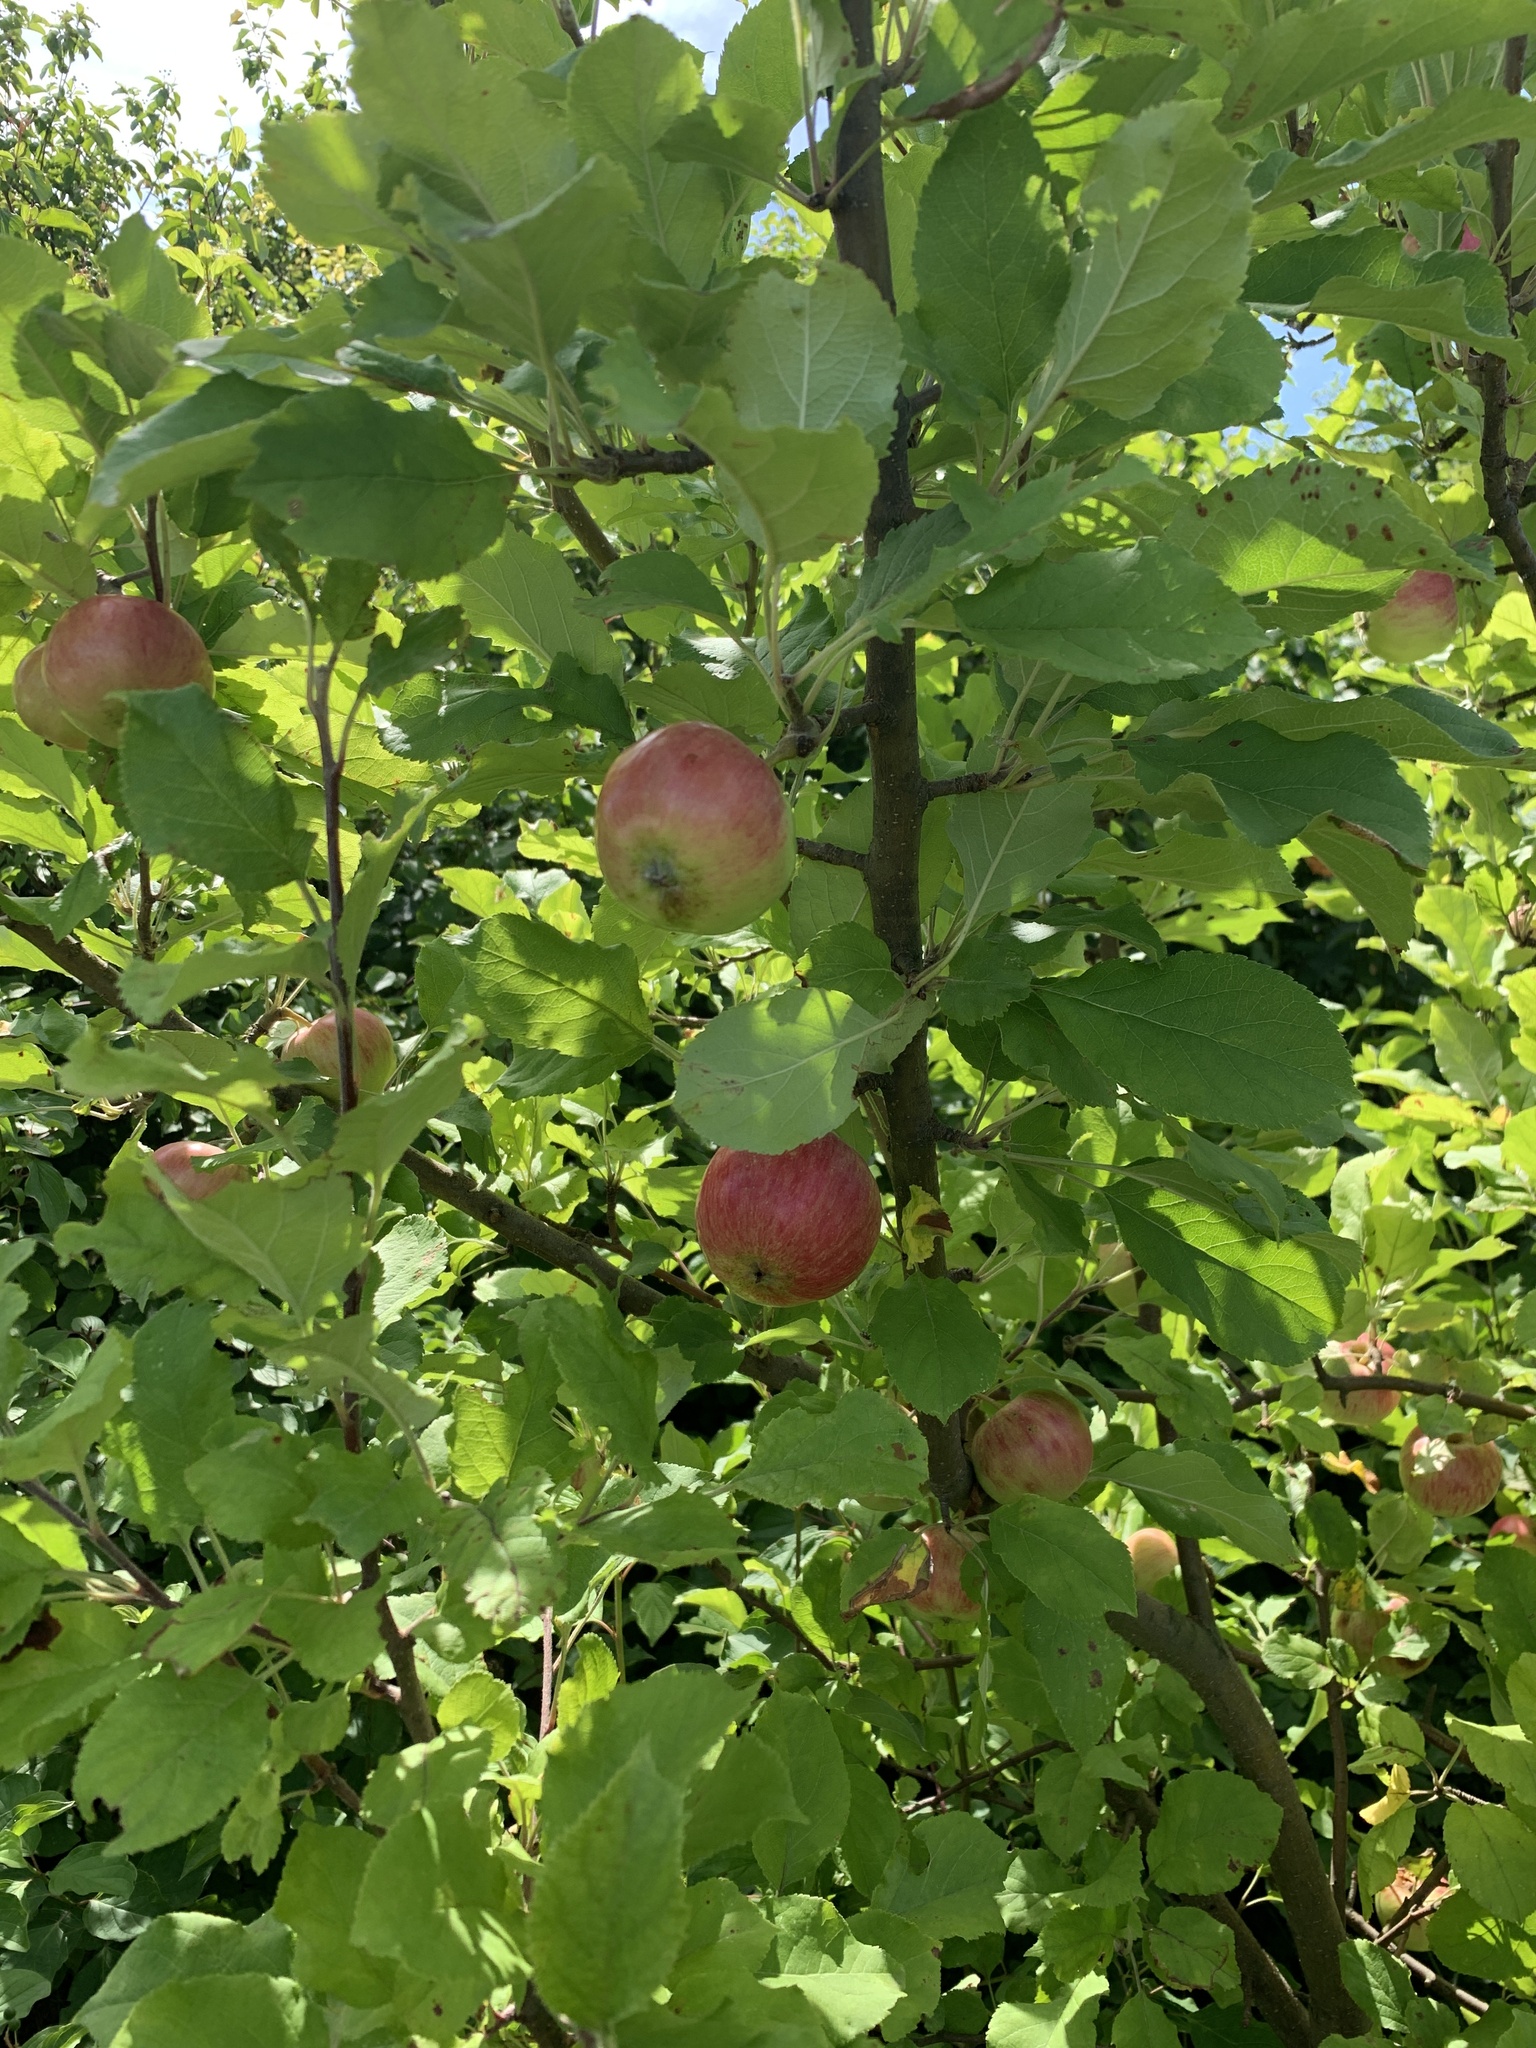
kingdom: Plantae
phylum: Tracheophyta
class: Magnoliopsida
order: Rosales
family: Rosaceae
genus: Malus
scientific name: Malus domestica
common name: Apple
